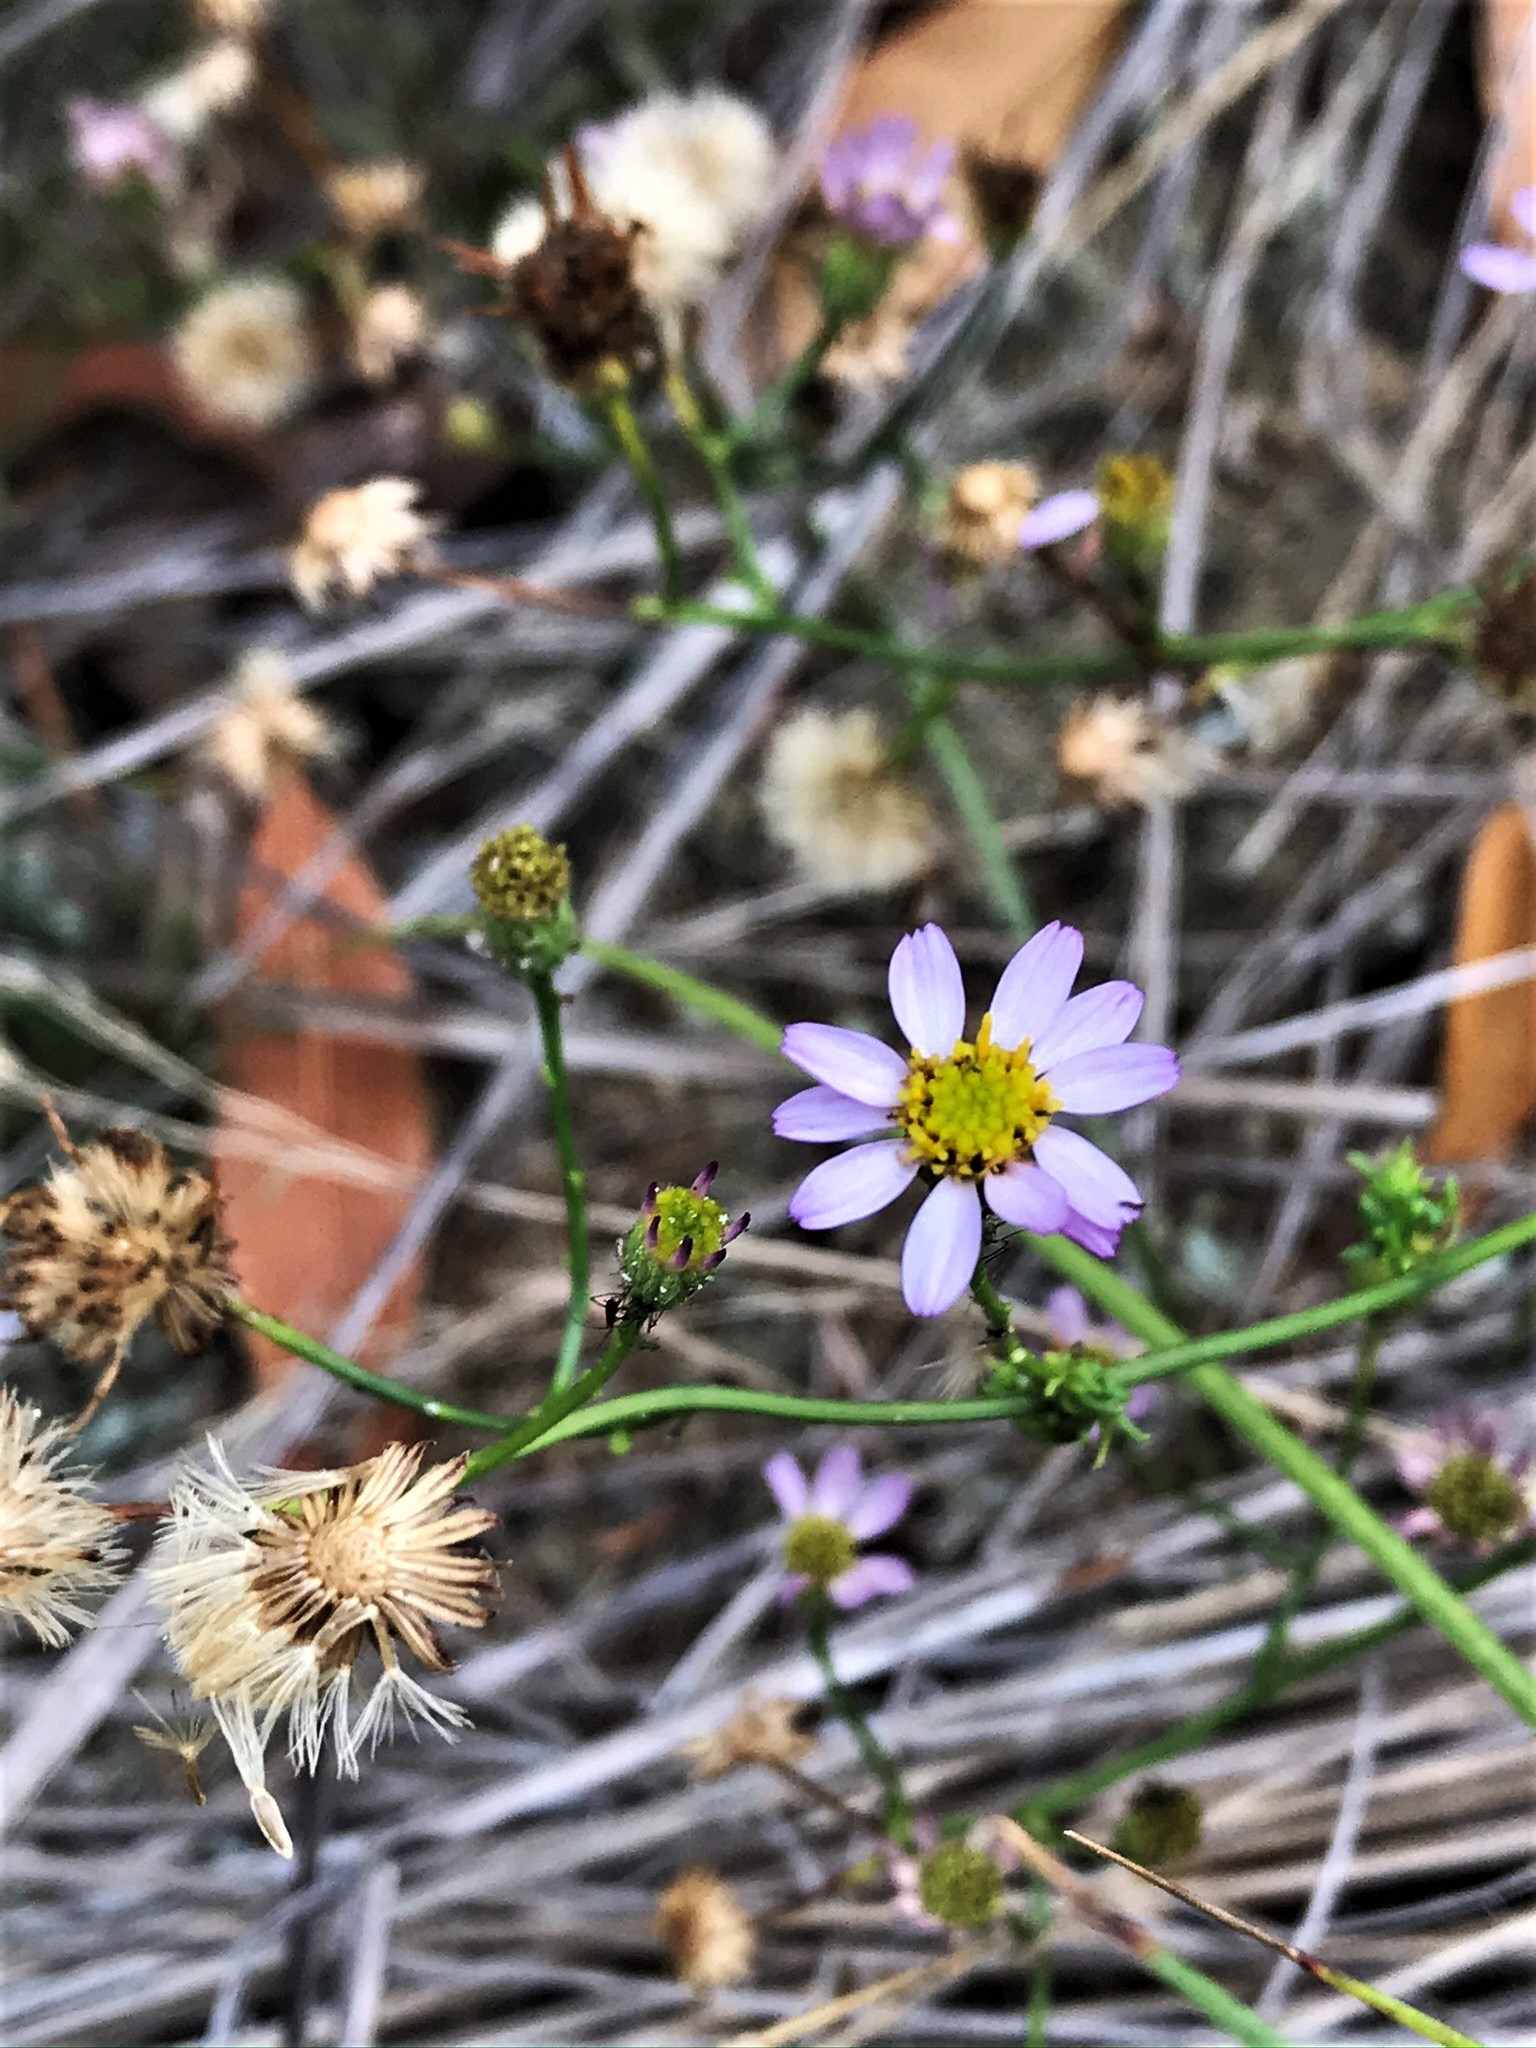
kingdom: Plantae
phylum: Tracheophyta
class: Magnoliopsida
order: Asterales
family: Asteraceae
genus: Erigeron
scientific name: Erigeron serpentinus
